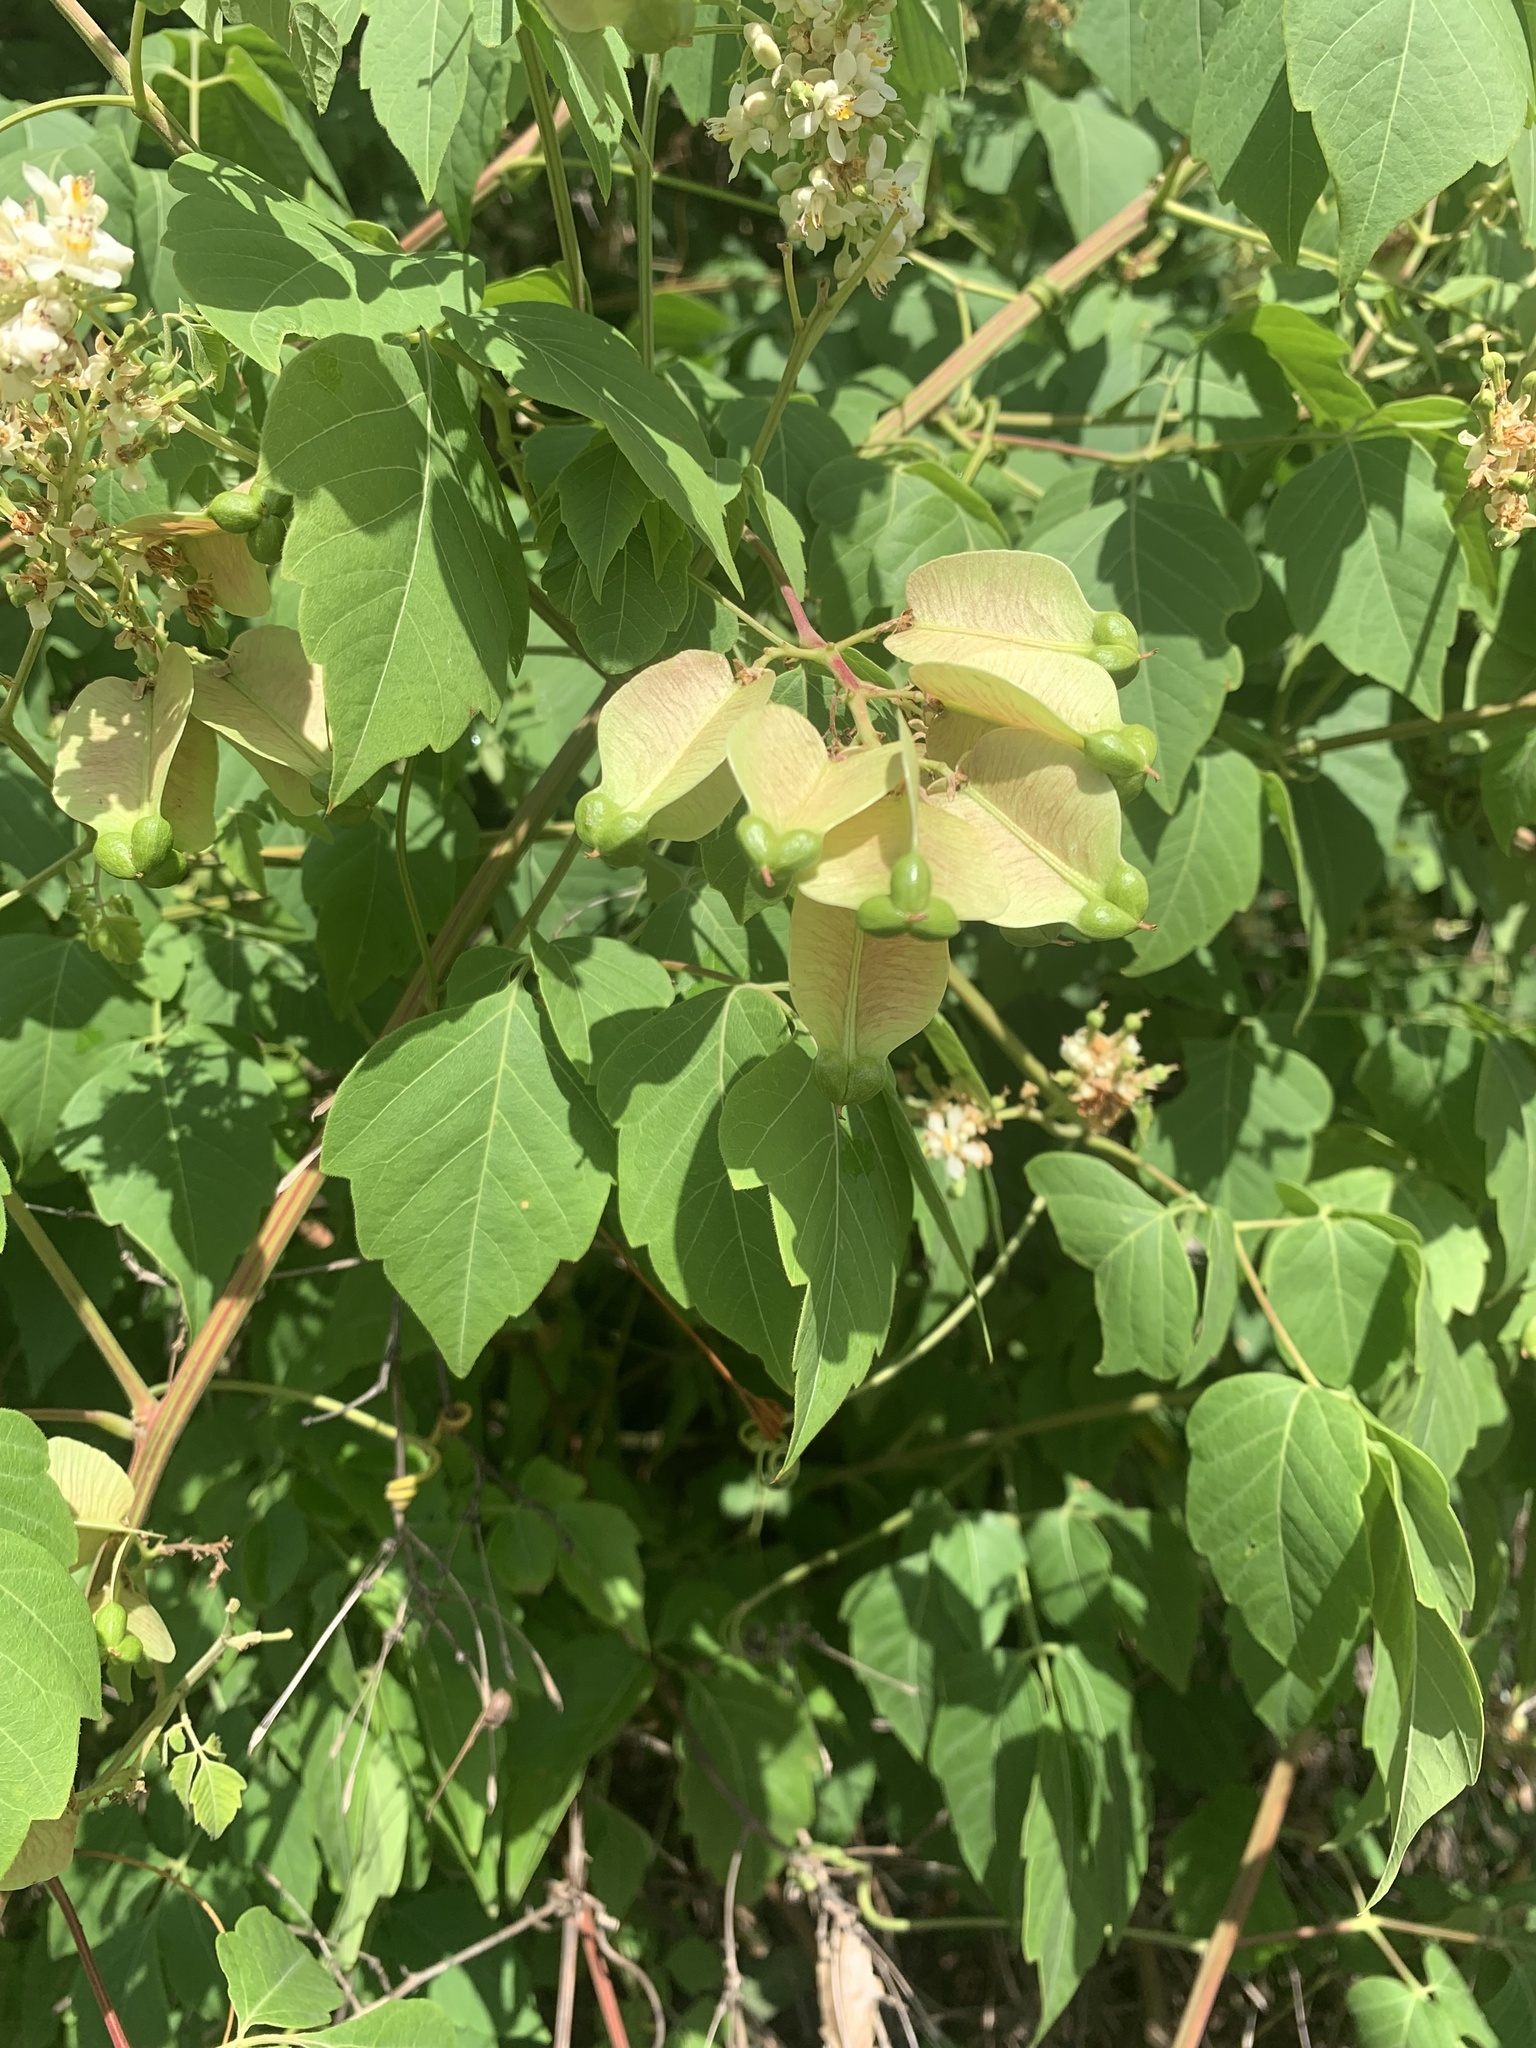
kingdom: Plantae
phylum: Tracheophyta
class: Magnoliopsida
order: Sapindales
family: Sapindaceae
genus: Cardiospermum
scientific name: Cardiospermum grandiflorum
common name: Balloon vine
